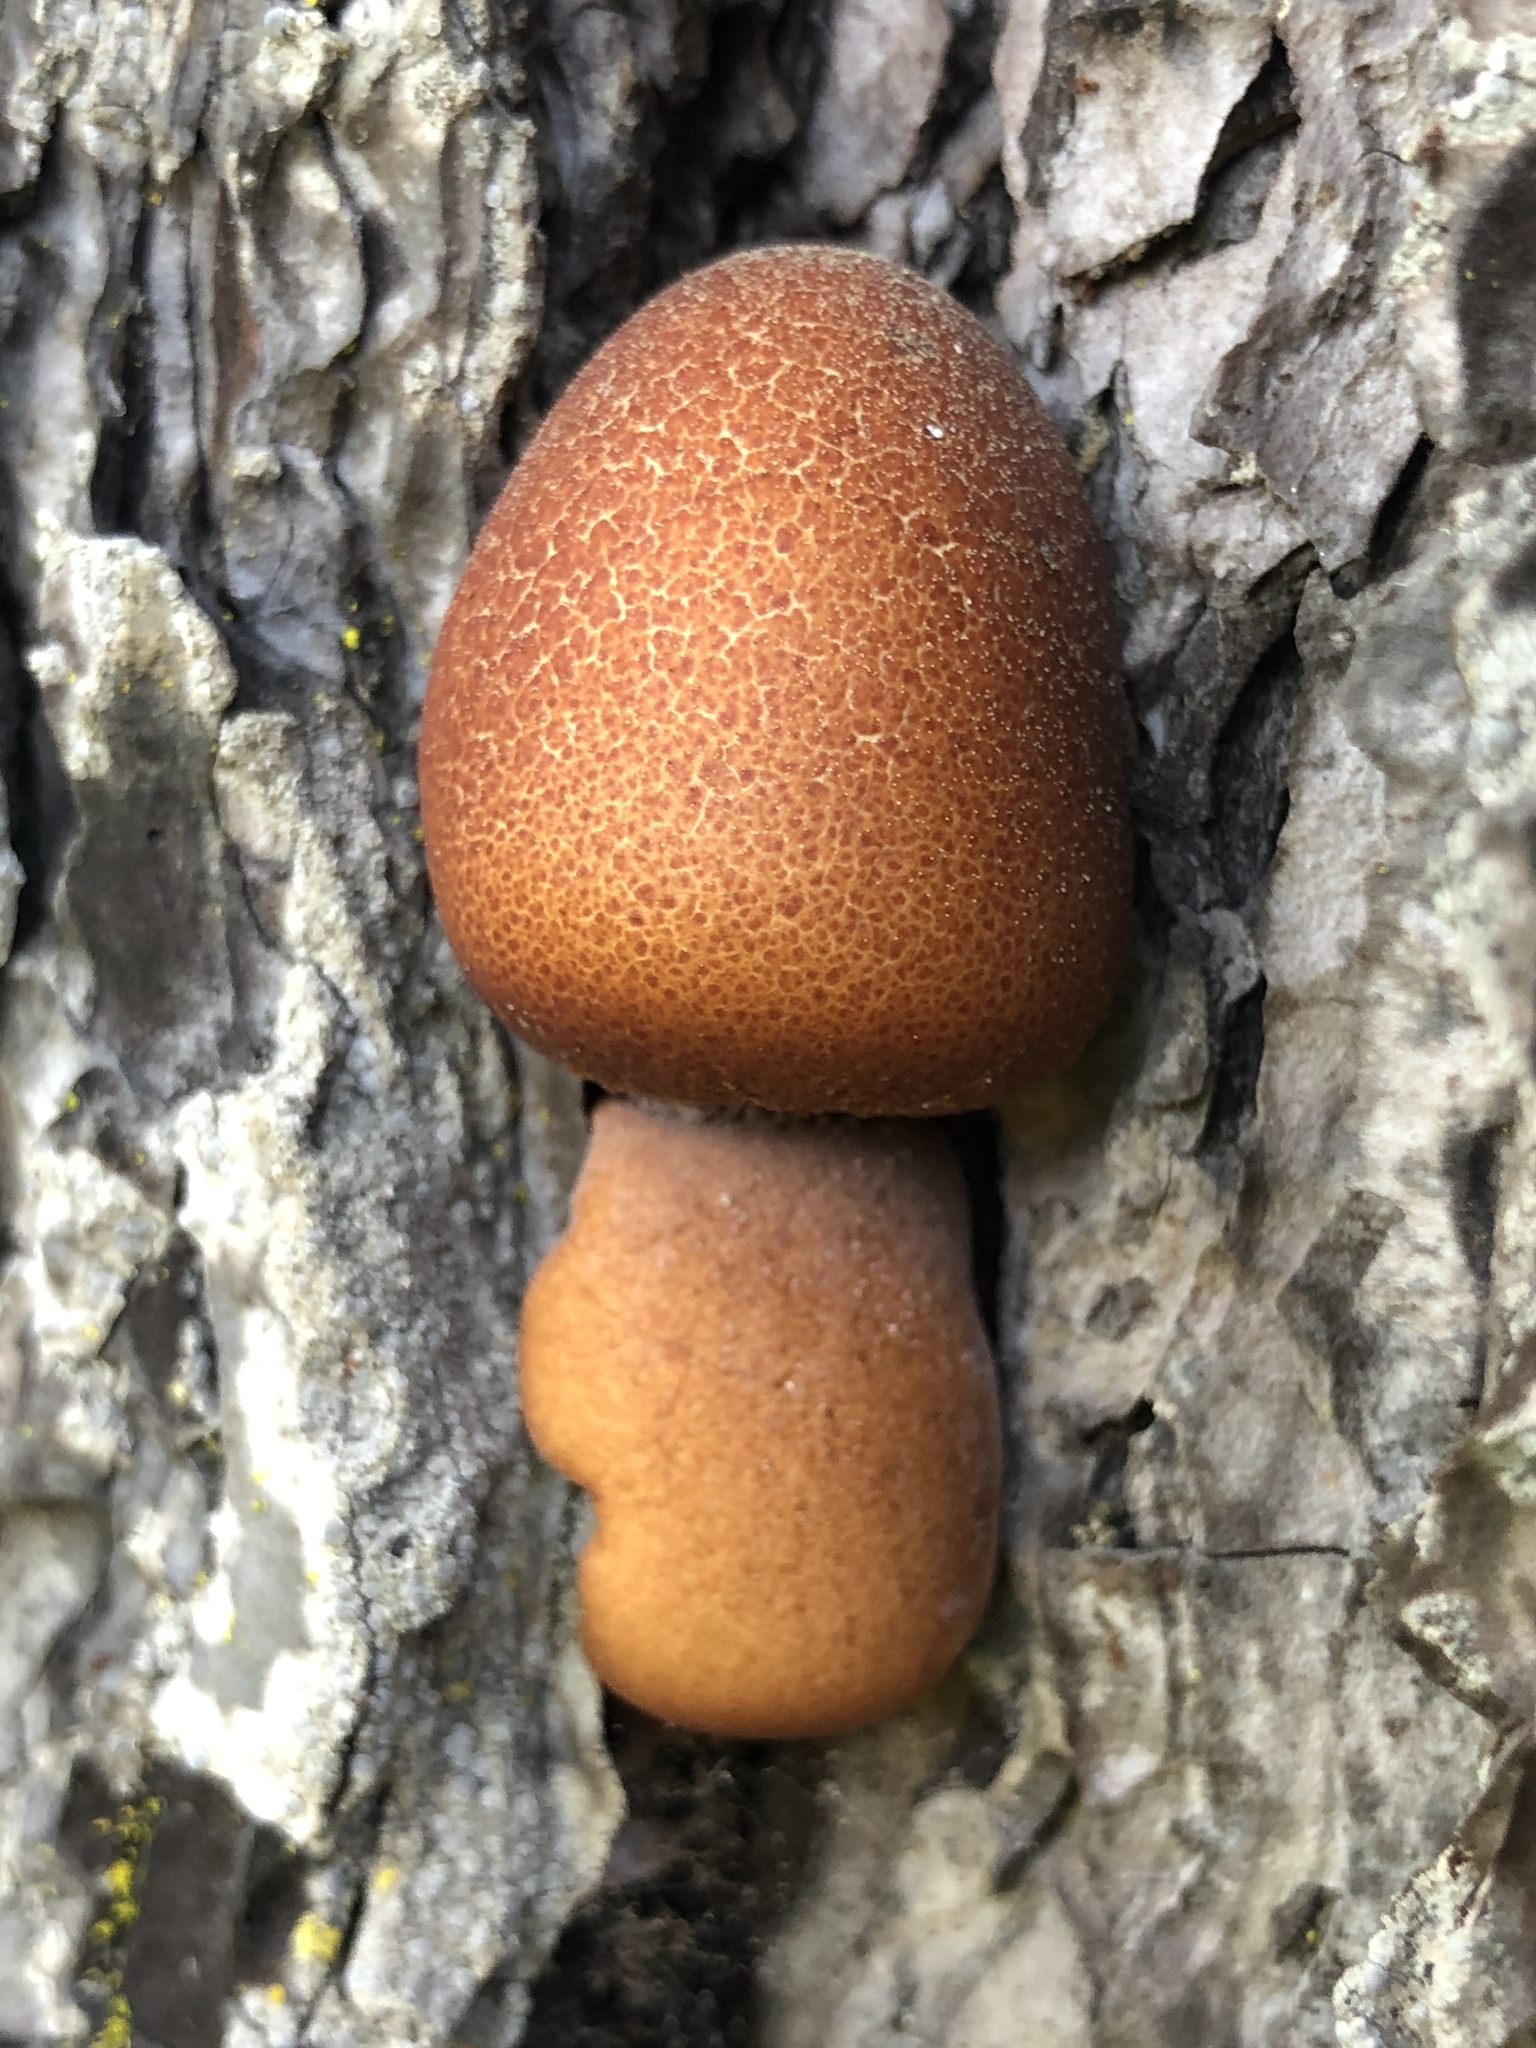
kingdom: Fungi
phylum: Basidiomycota
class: Agaricomycetes
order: Polyporales
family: Polyporaceae
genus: Cryptoporus
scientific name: Cryptoporus volvatus
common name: Veiled polypore
